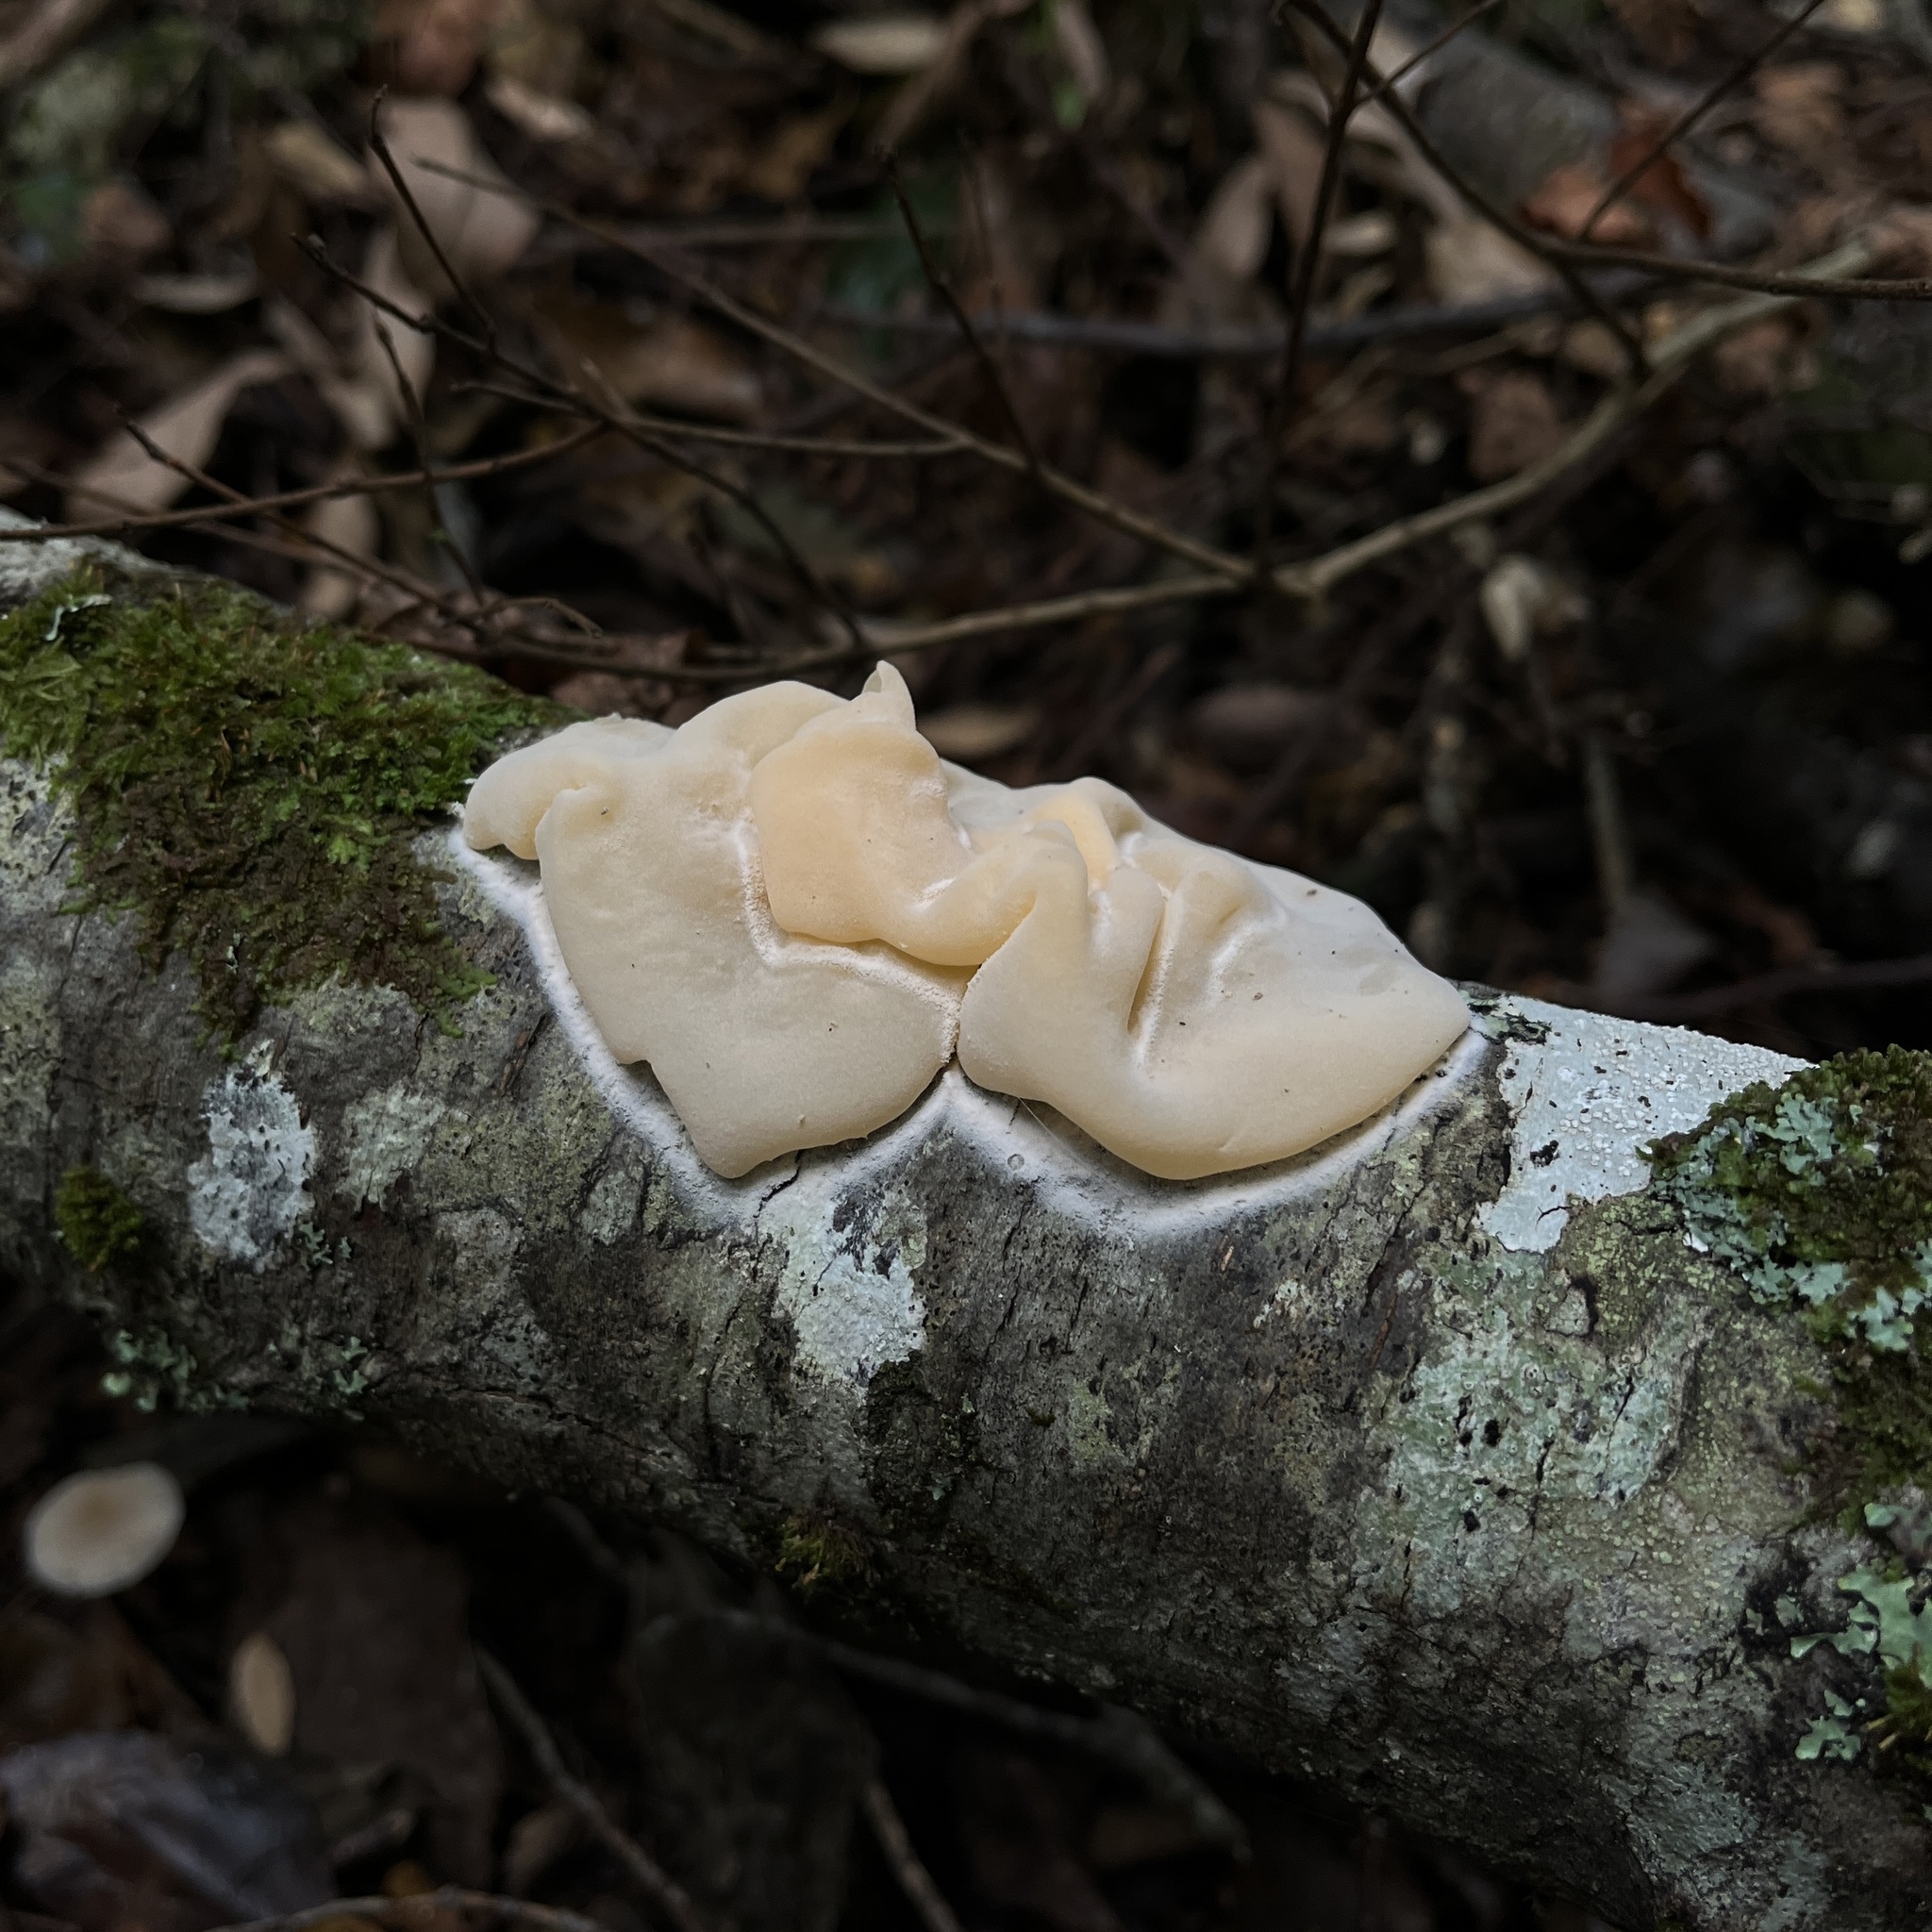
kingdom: Fungi
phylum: Basidiomycota
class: Agaricomycetes
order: Russulales
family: Stereaceae
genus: Aleurodiscus
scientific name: Aleurodiscus vitellinus
